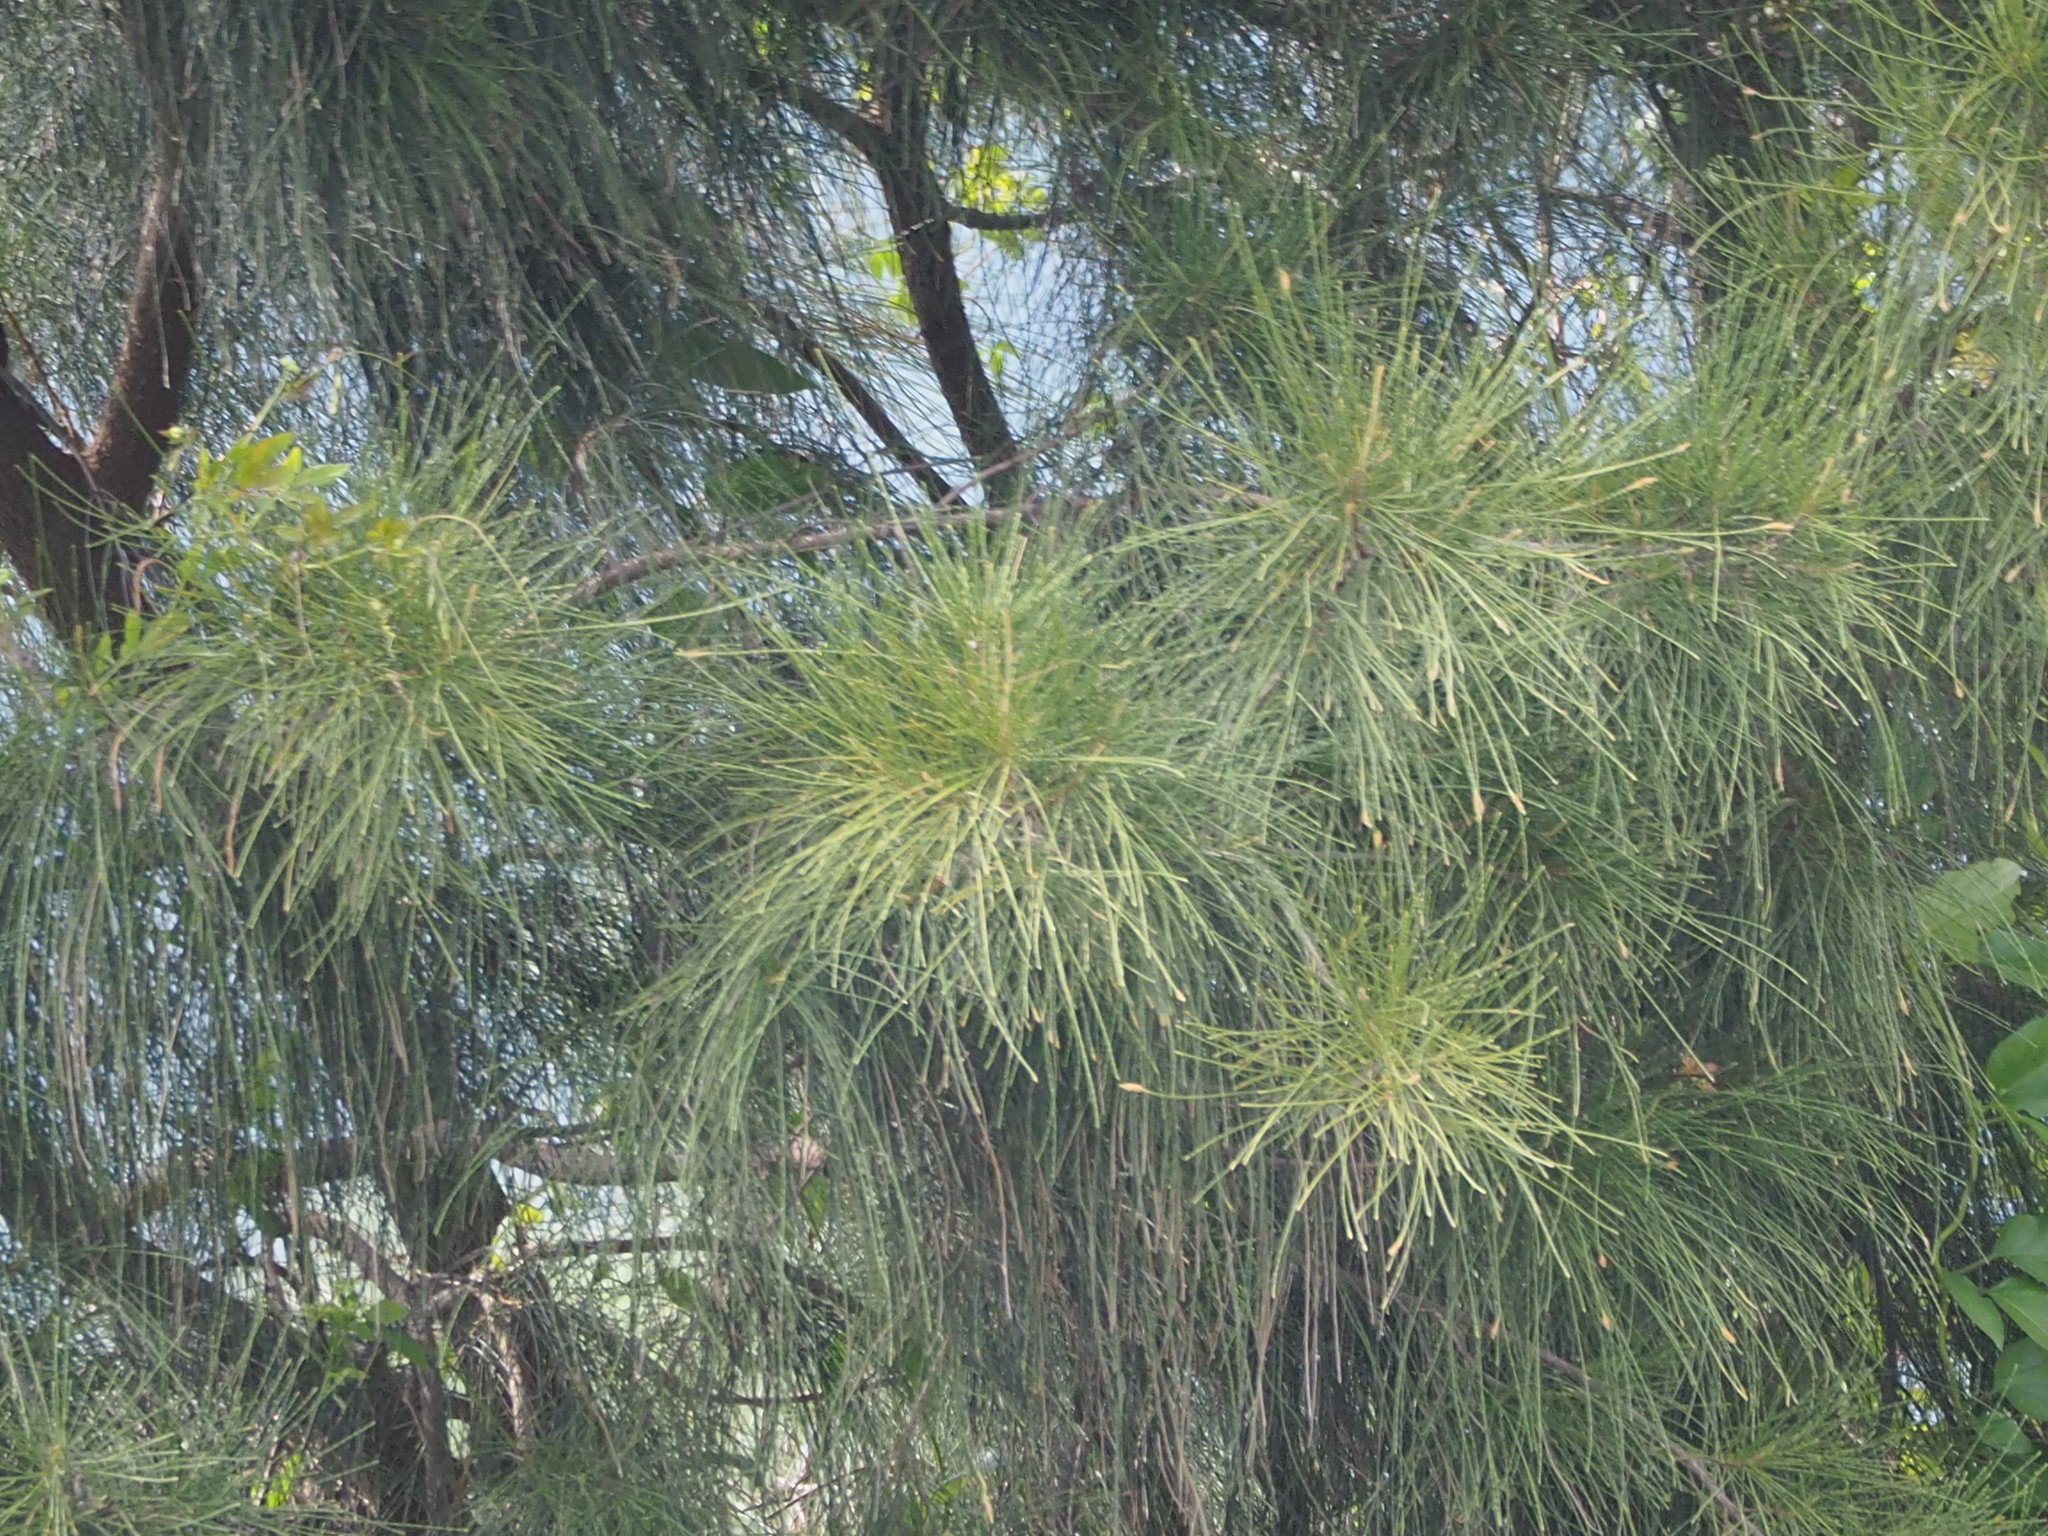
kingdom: Plantae
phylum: Tracheophyta
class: Magnoliopsida
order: Fagales
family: Casuarinaceae
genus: Casuarina
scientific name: Casuarina equisetifolia
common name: Beach sheoak
